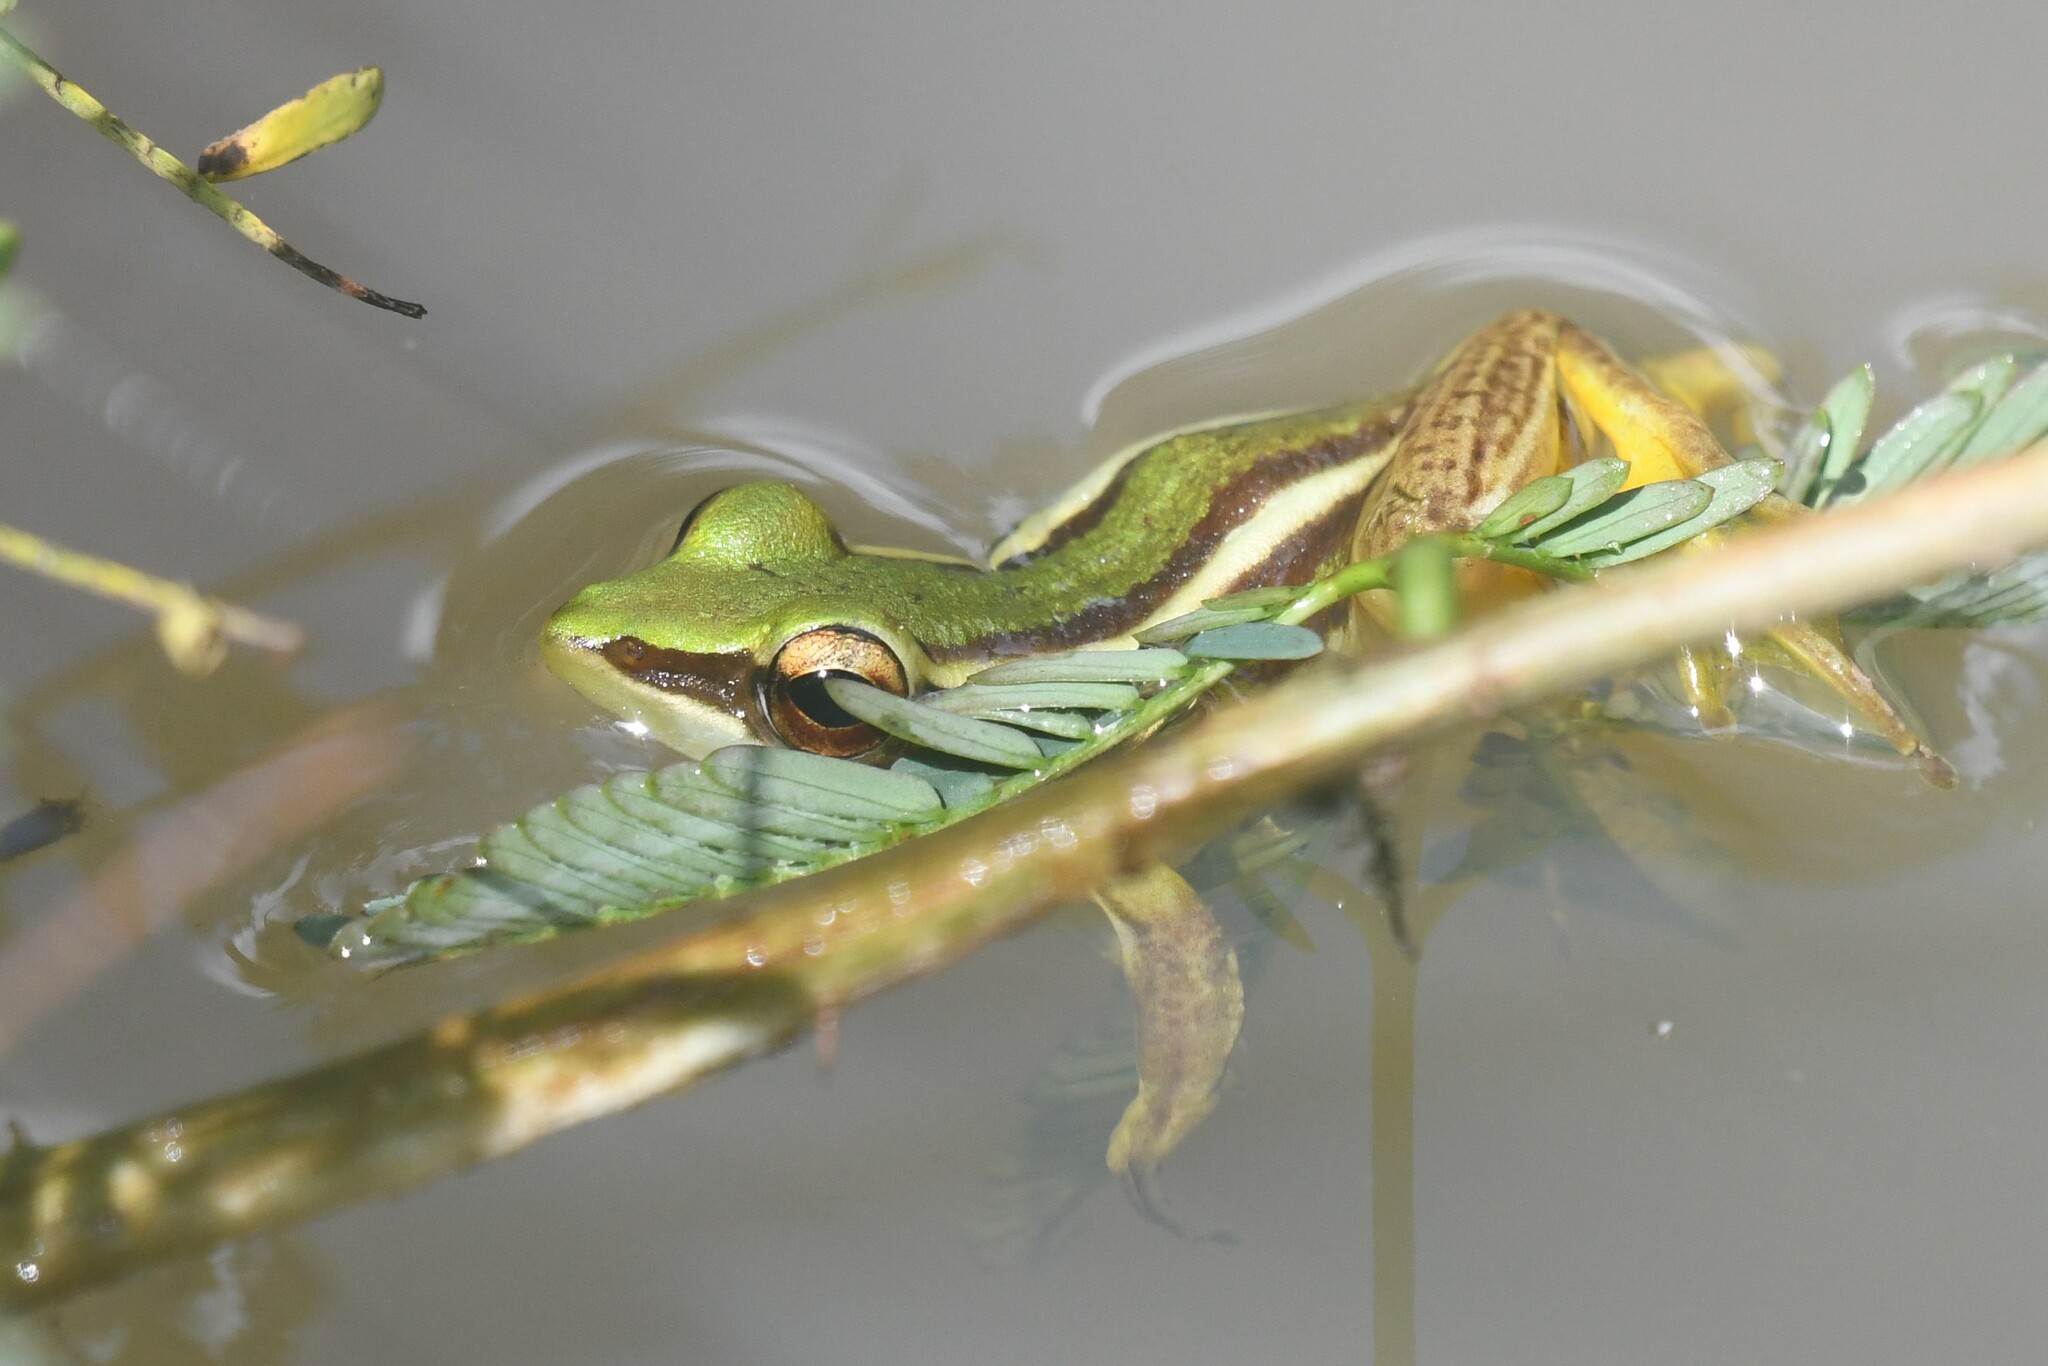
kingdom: Animalia
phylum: Chordata
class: Amphibia
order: Anura
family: Ranidae
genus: Hylarana
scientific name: Hylarana erythraea
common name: Common green frog/green paddy frog/leaf frog
